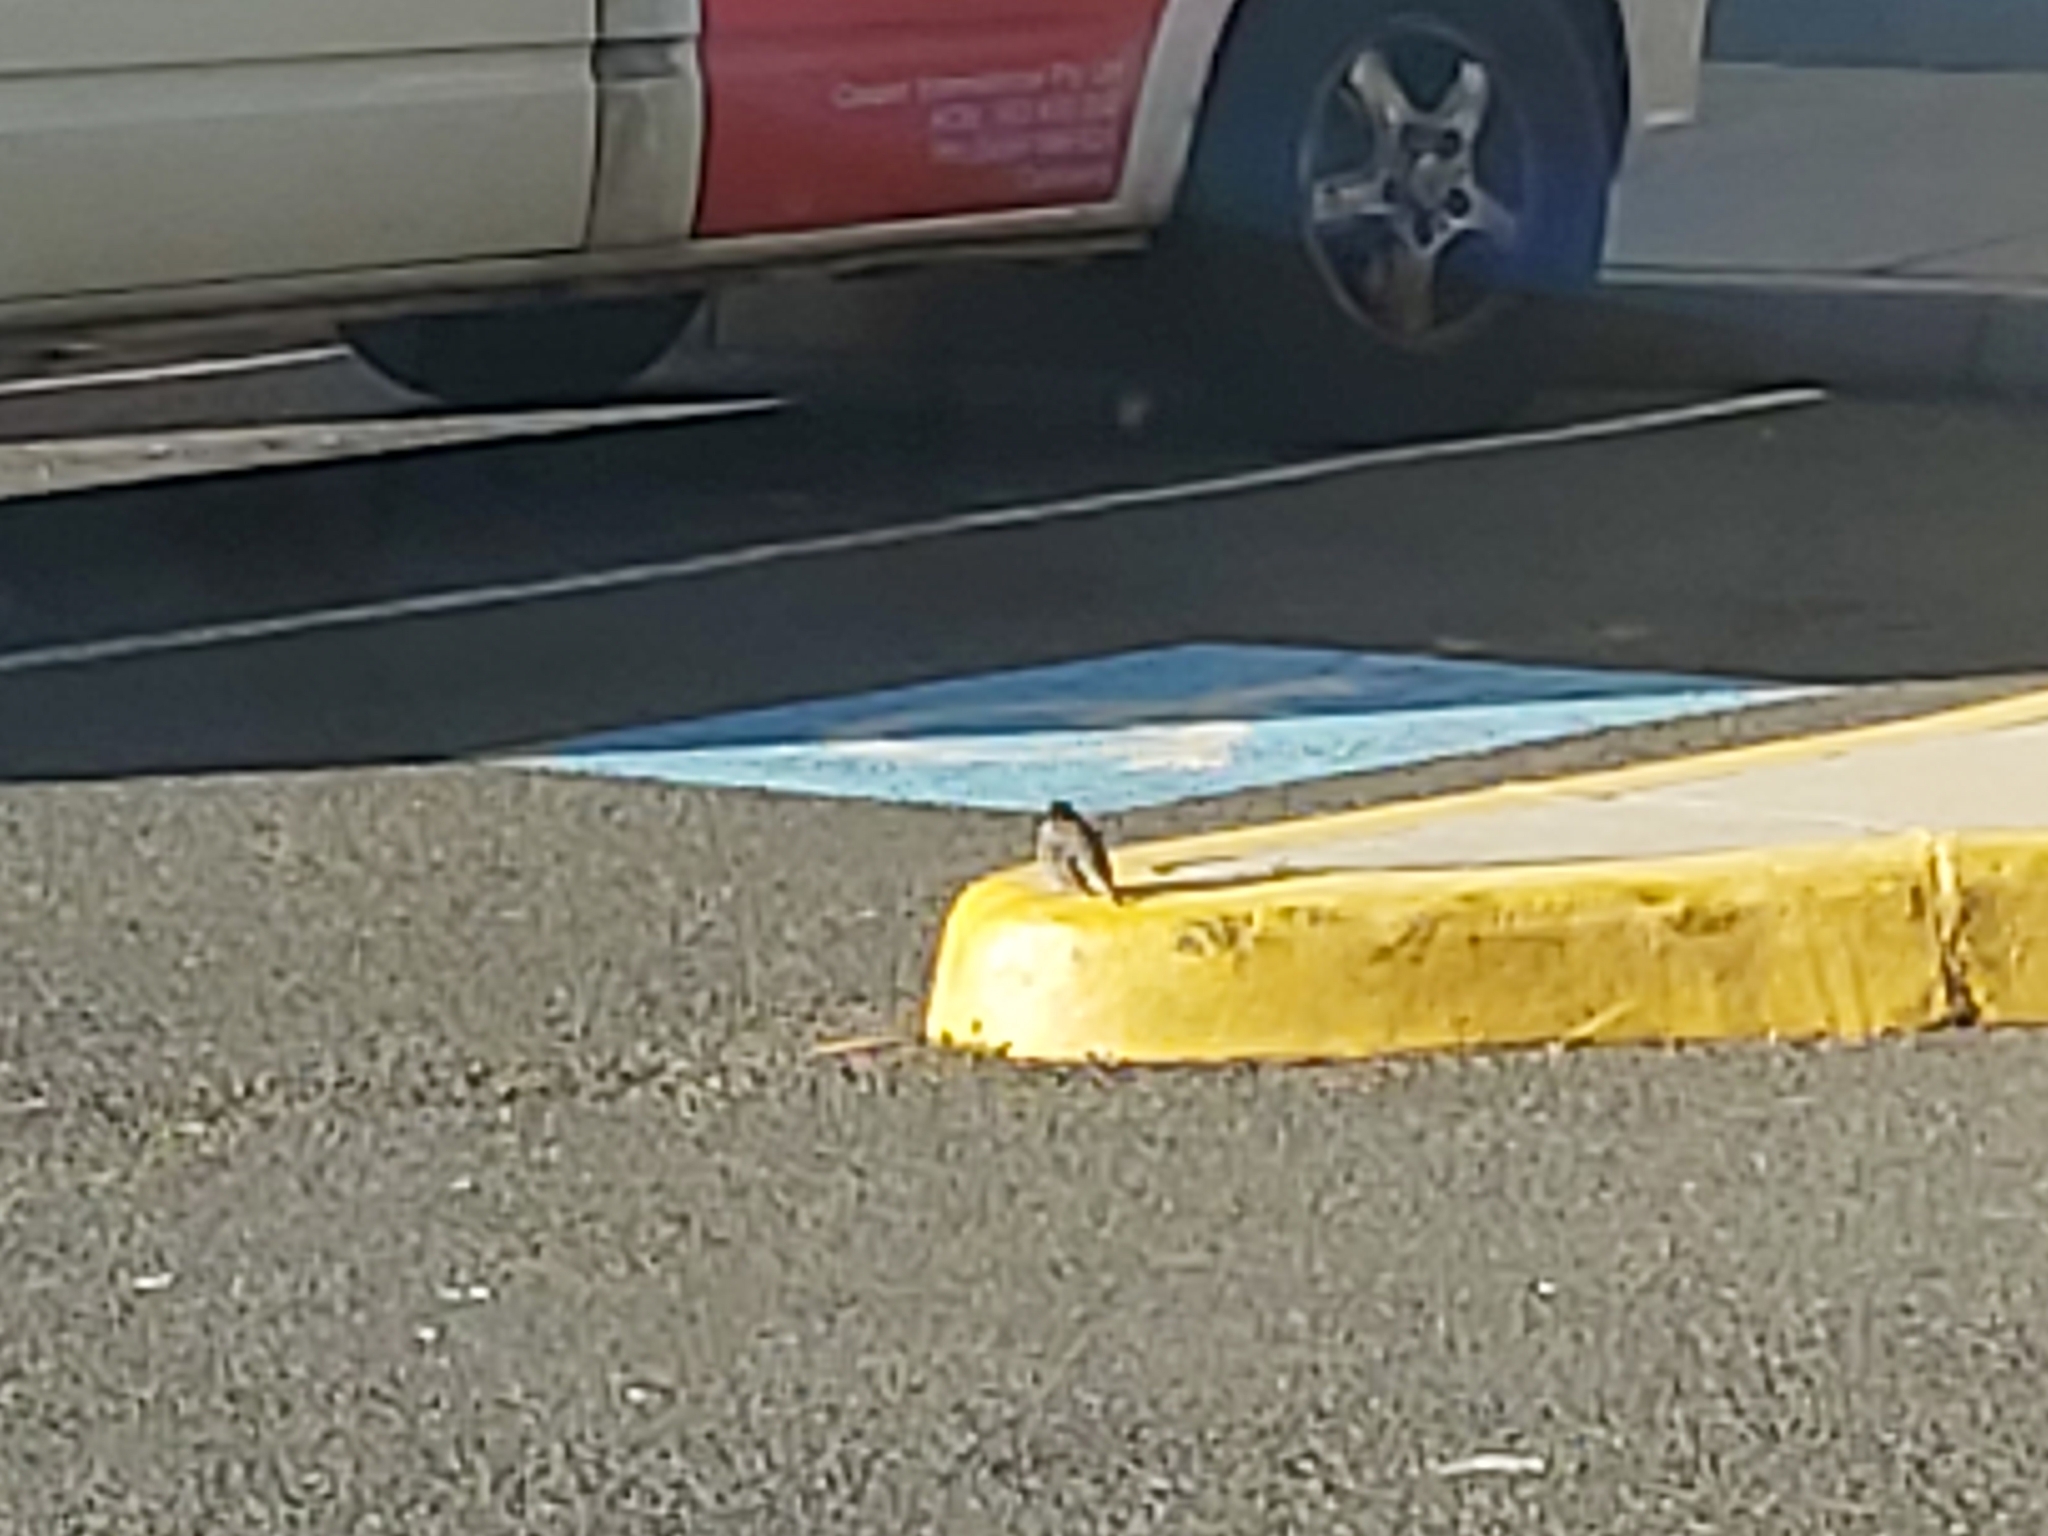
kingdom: Animalia
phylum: Chordata
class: Aves
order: Passeriformes
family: Passeridae
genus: Passer
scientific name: Passer domesticus
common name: House sparrow
